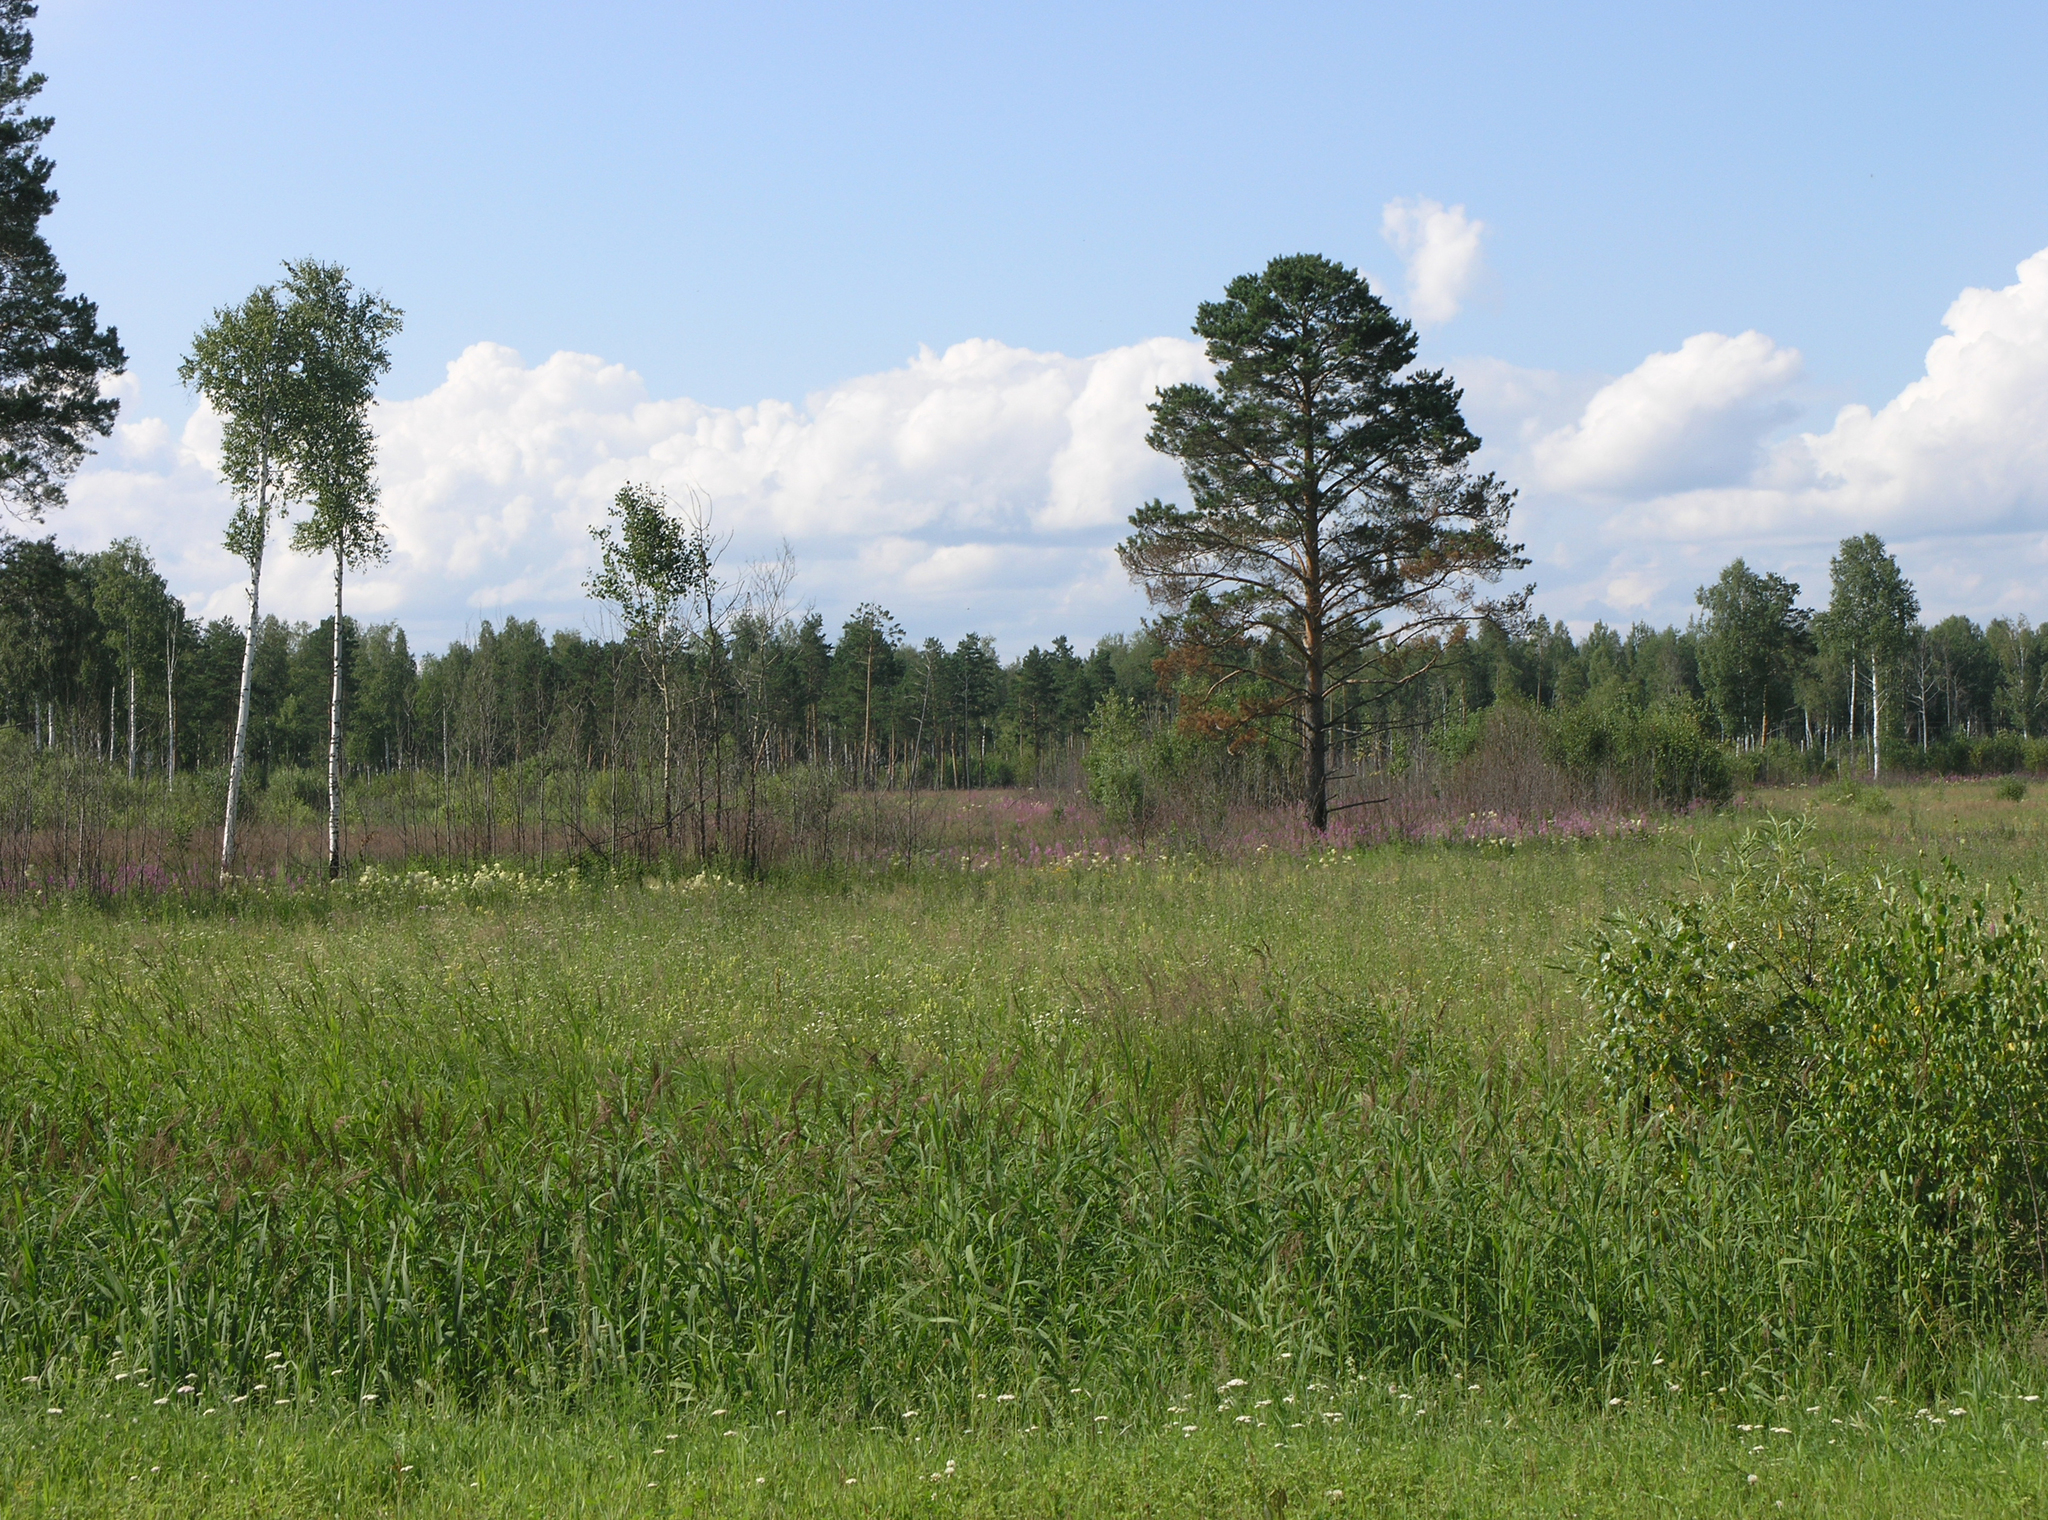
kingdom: Plantae
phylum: Tracheophyta
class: Pinopsida
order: Pinales
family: Pinaceae
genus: Pinus
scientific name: Pinus sylvestris
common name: Scots pine
